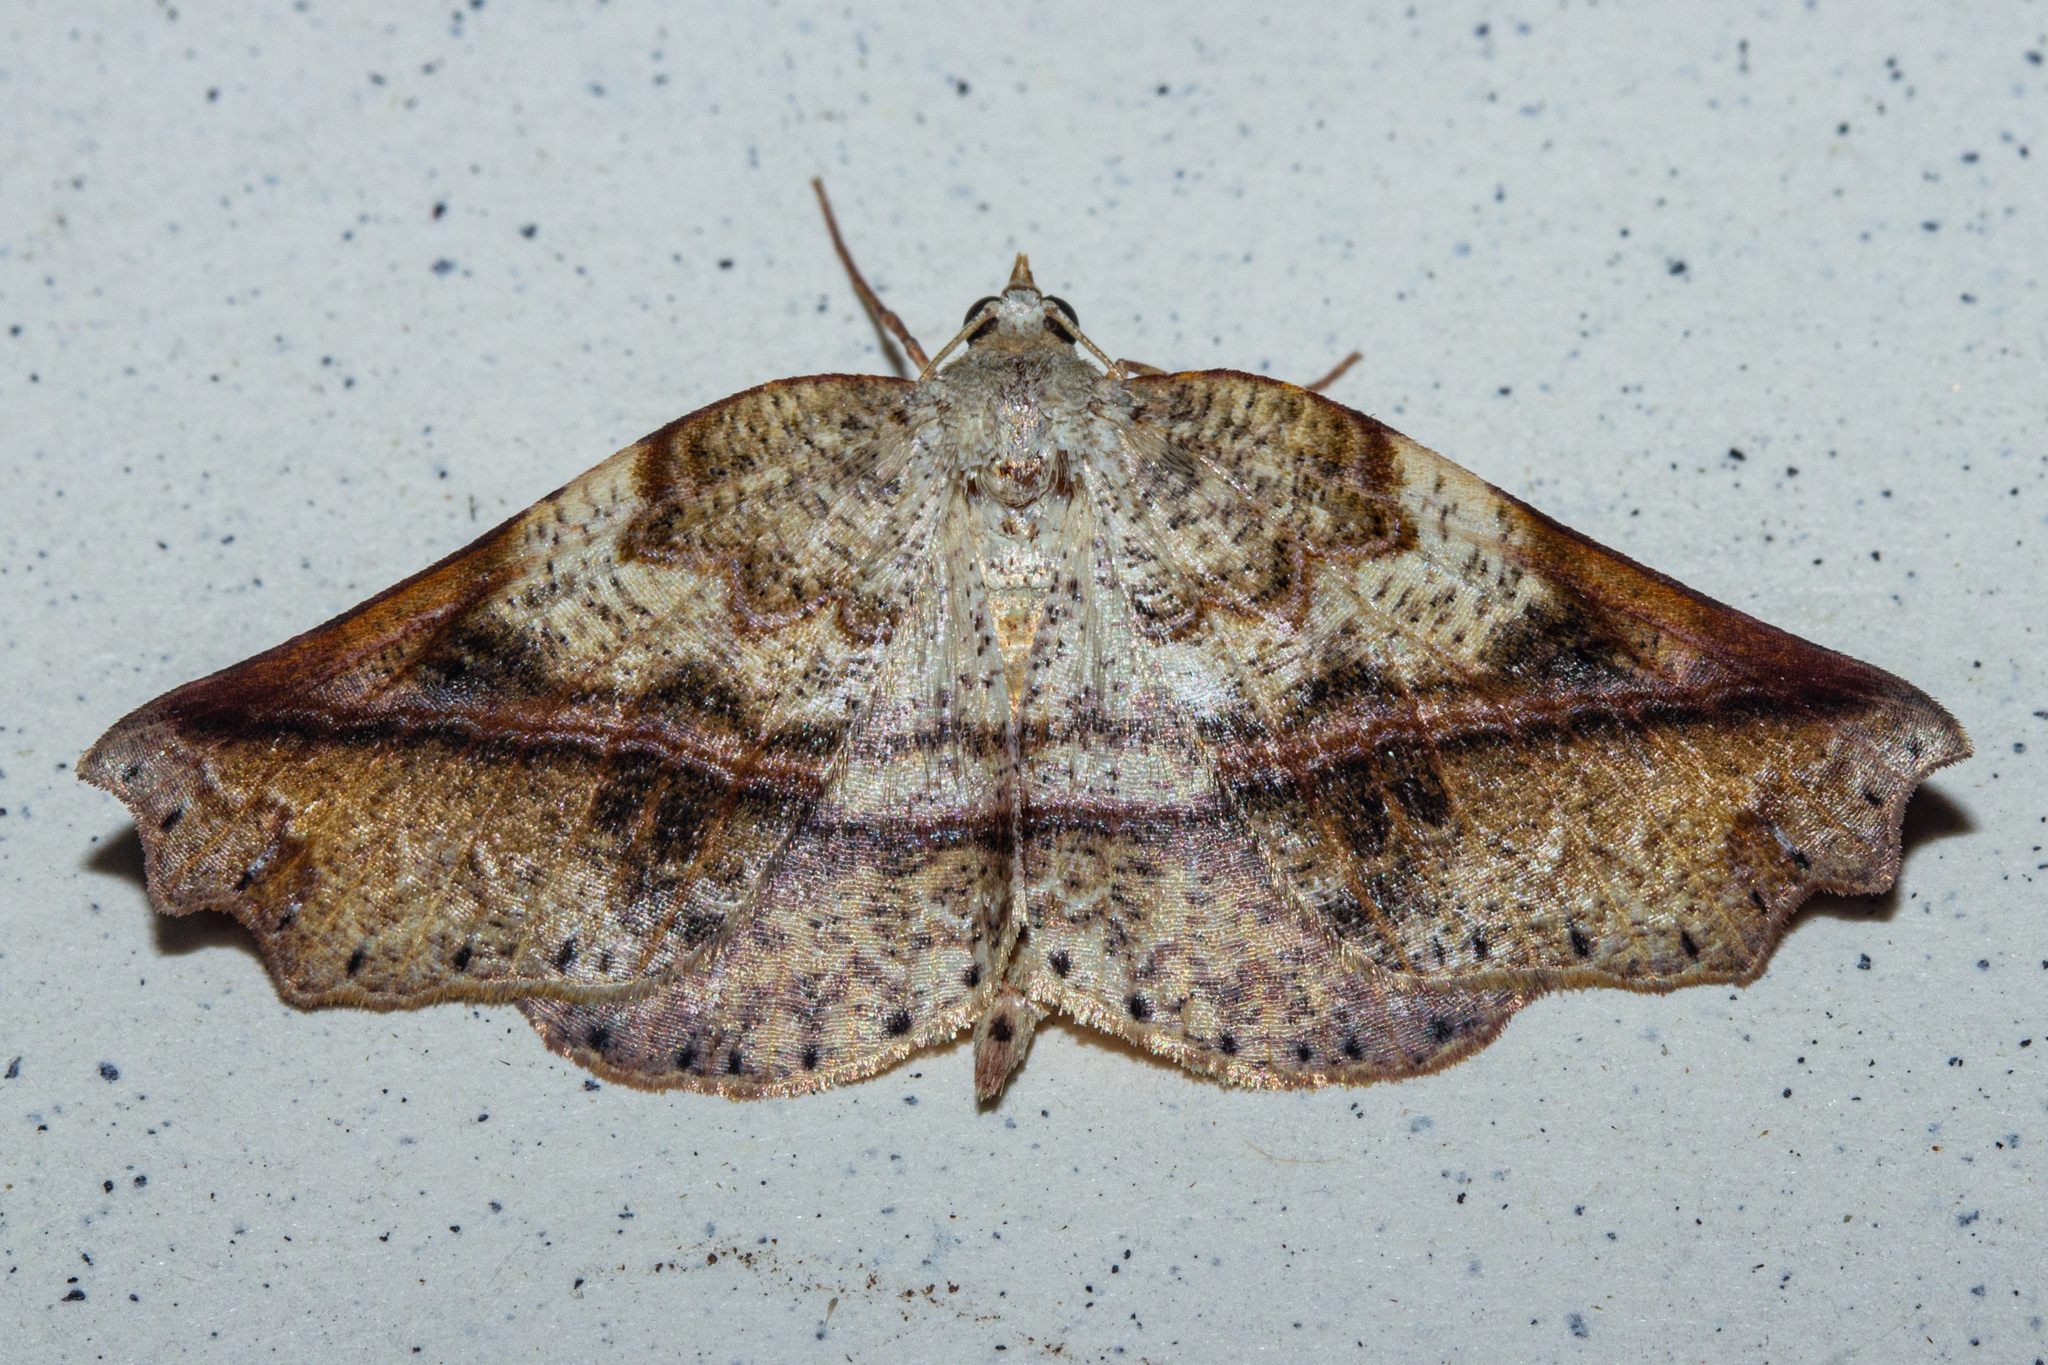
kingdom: Animalia
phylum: Arthropoda
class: Insecta
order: Lepidoptera
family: Geometridae
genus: Ischalis
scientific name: Ischalis gallaria
